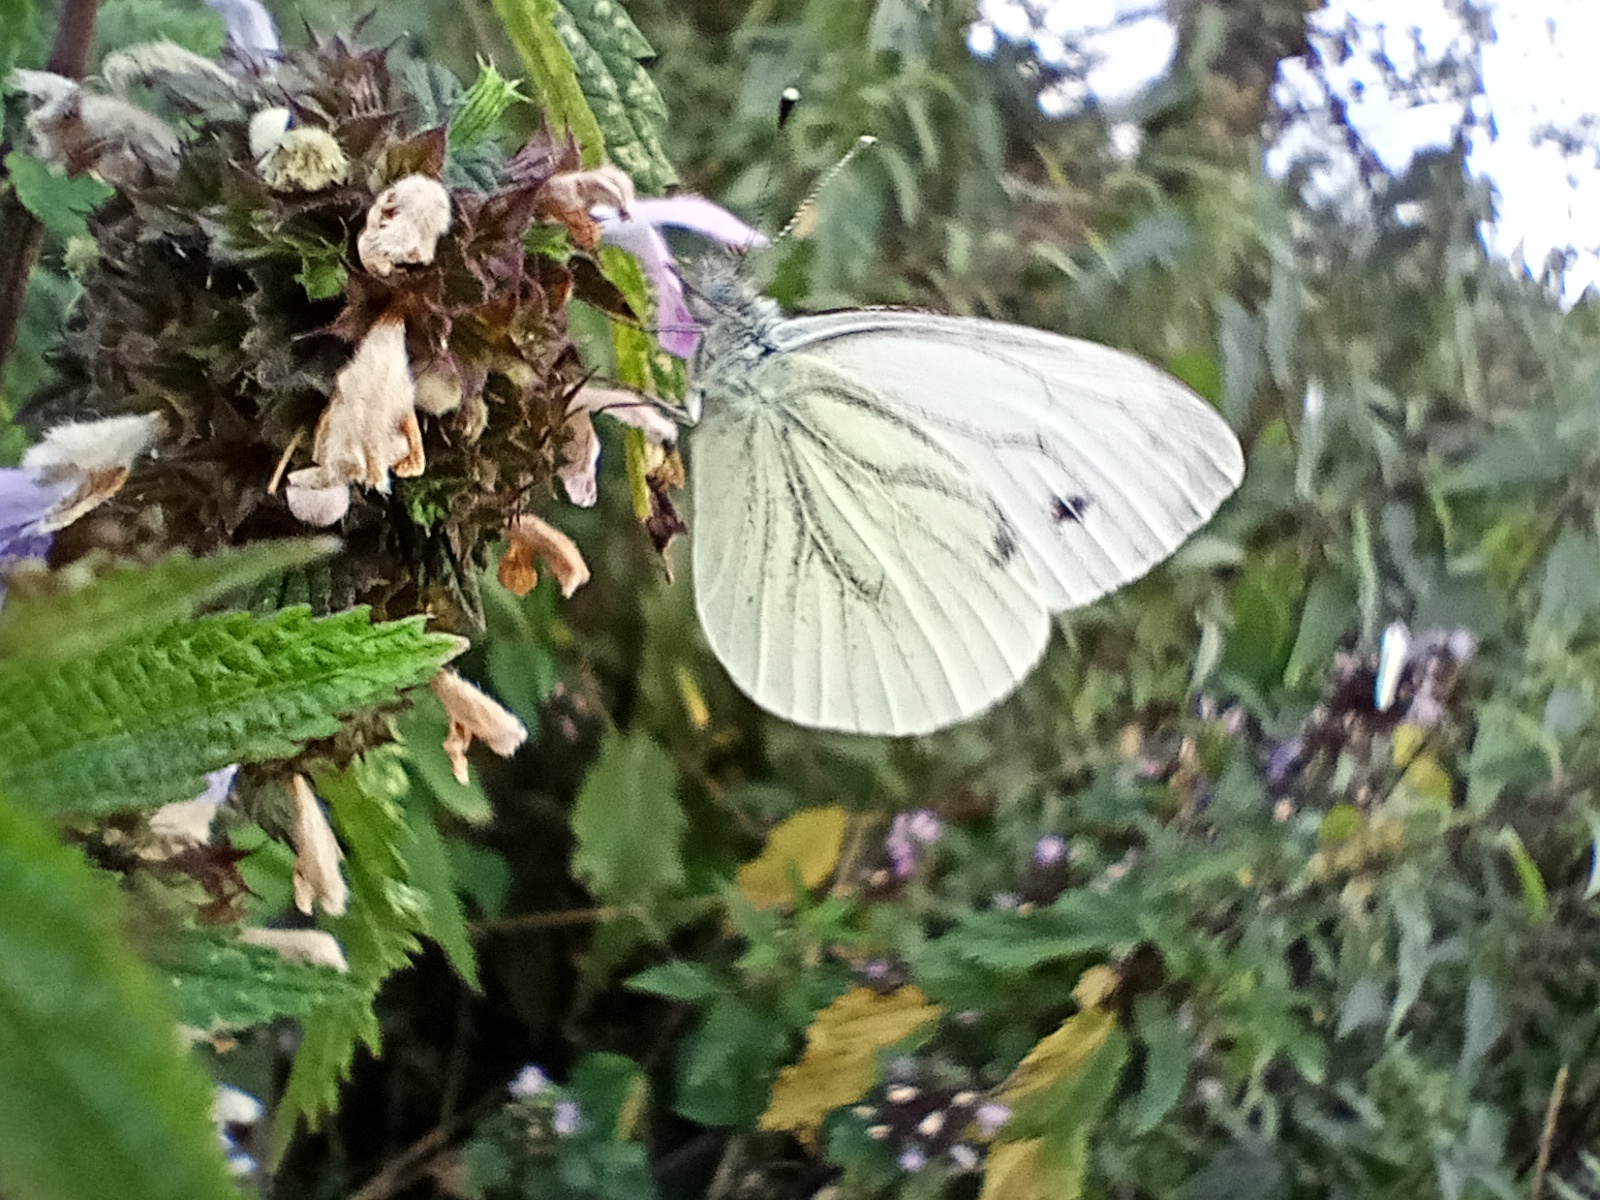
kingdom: Animalia
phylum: Arthropoda
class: Insecta
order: Lepidoptera
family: Pieridae
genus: Pieris
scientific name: Pieris napi
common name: Green-veined white
